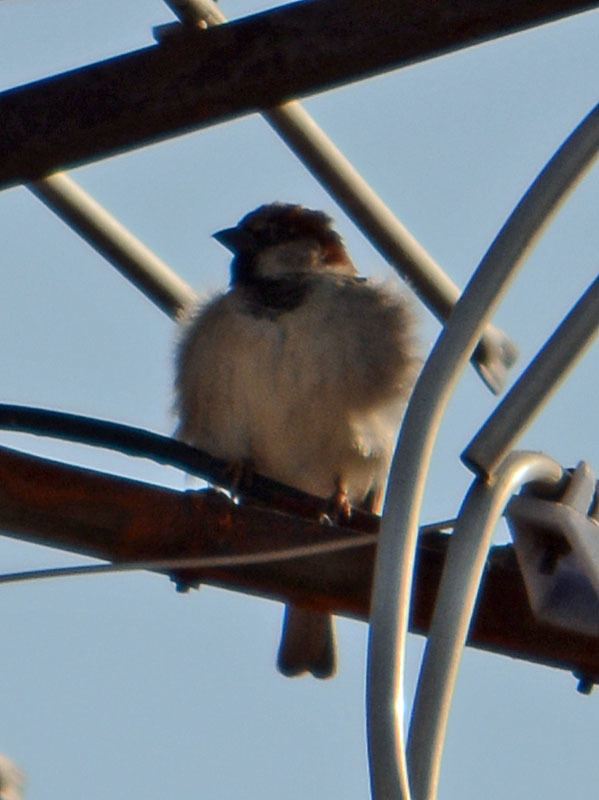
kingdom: Animalia
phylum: Chordata
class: Aves
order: Passeriformes
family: Passeridae
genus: Passer
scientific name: Passer domesticus
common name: House sparrow
